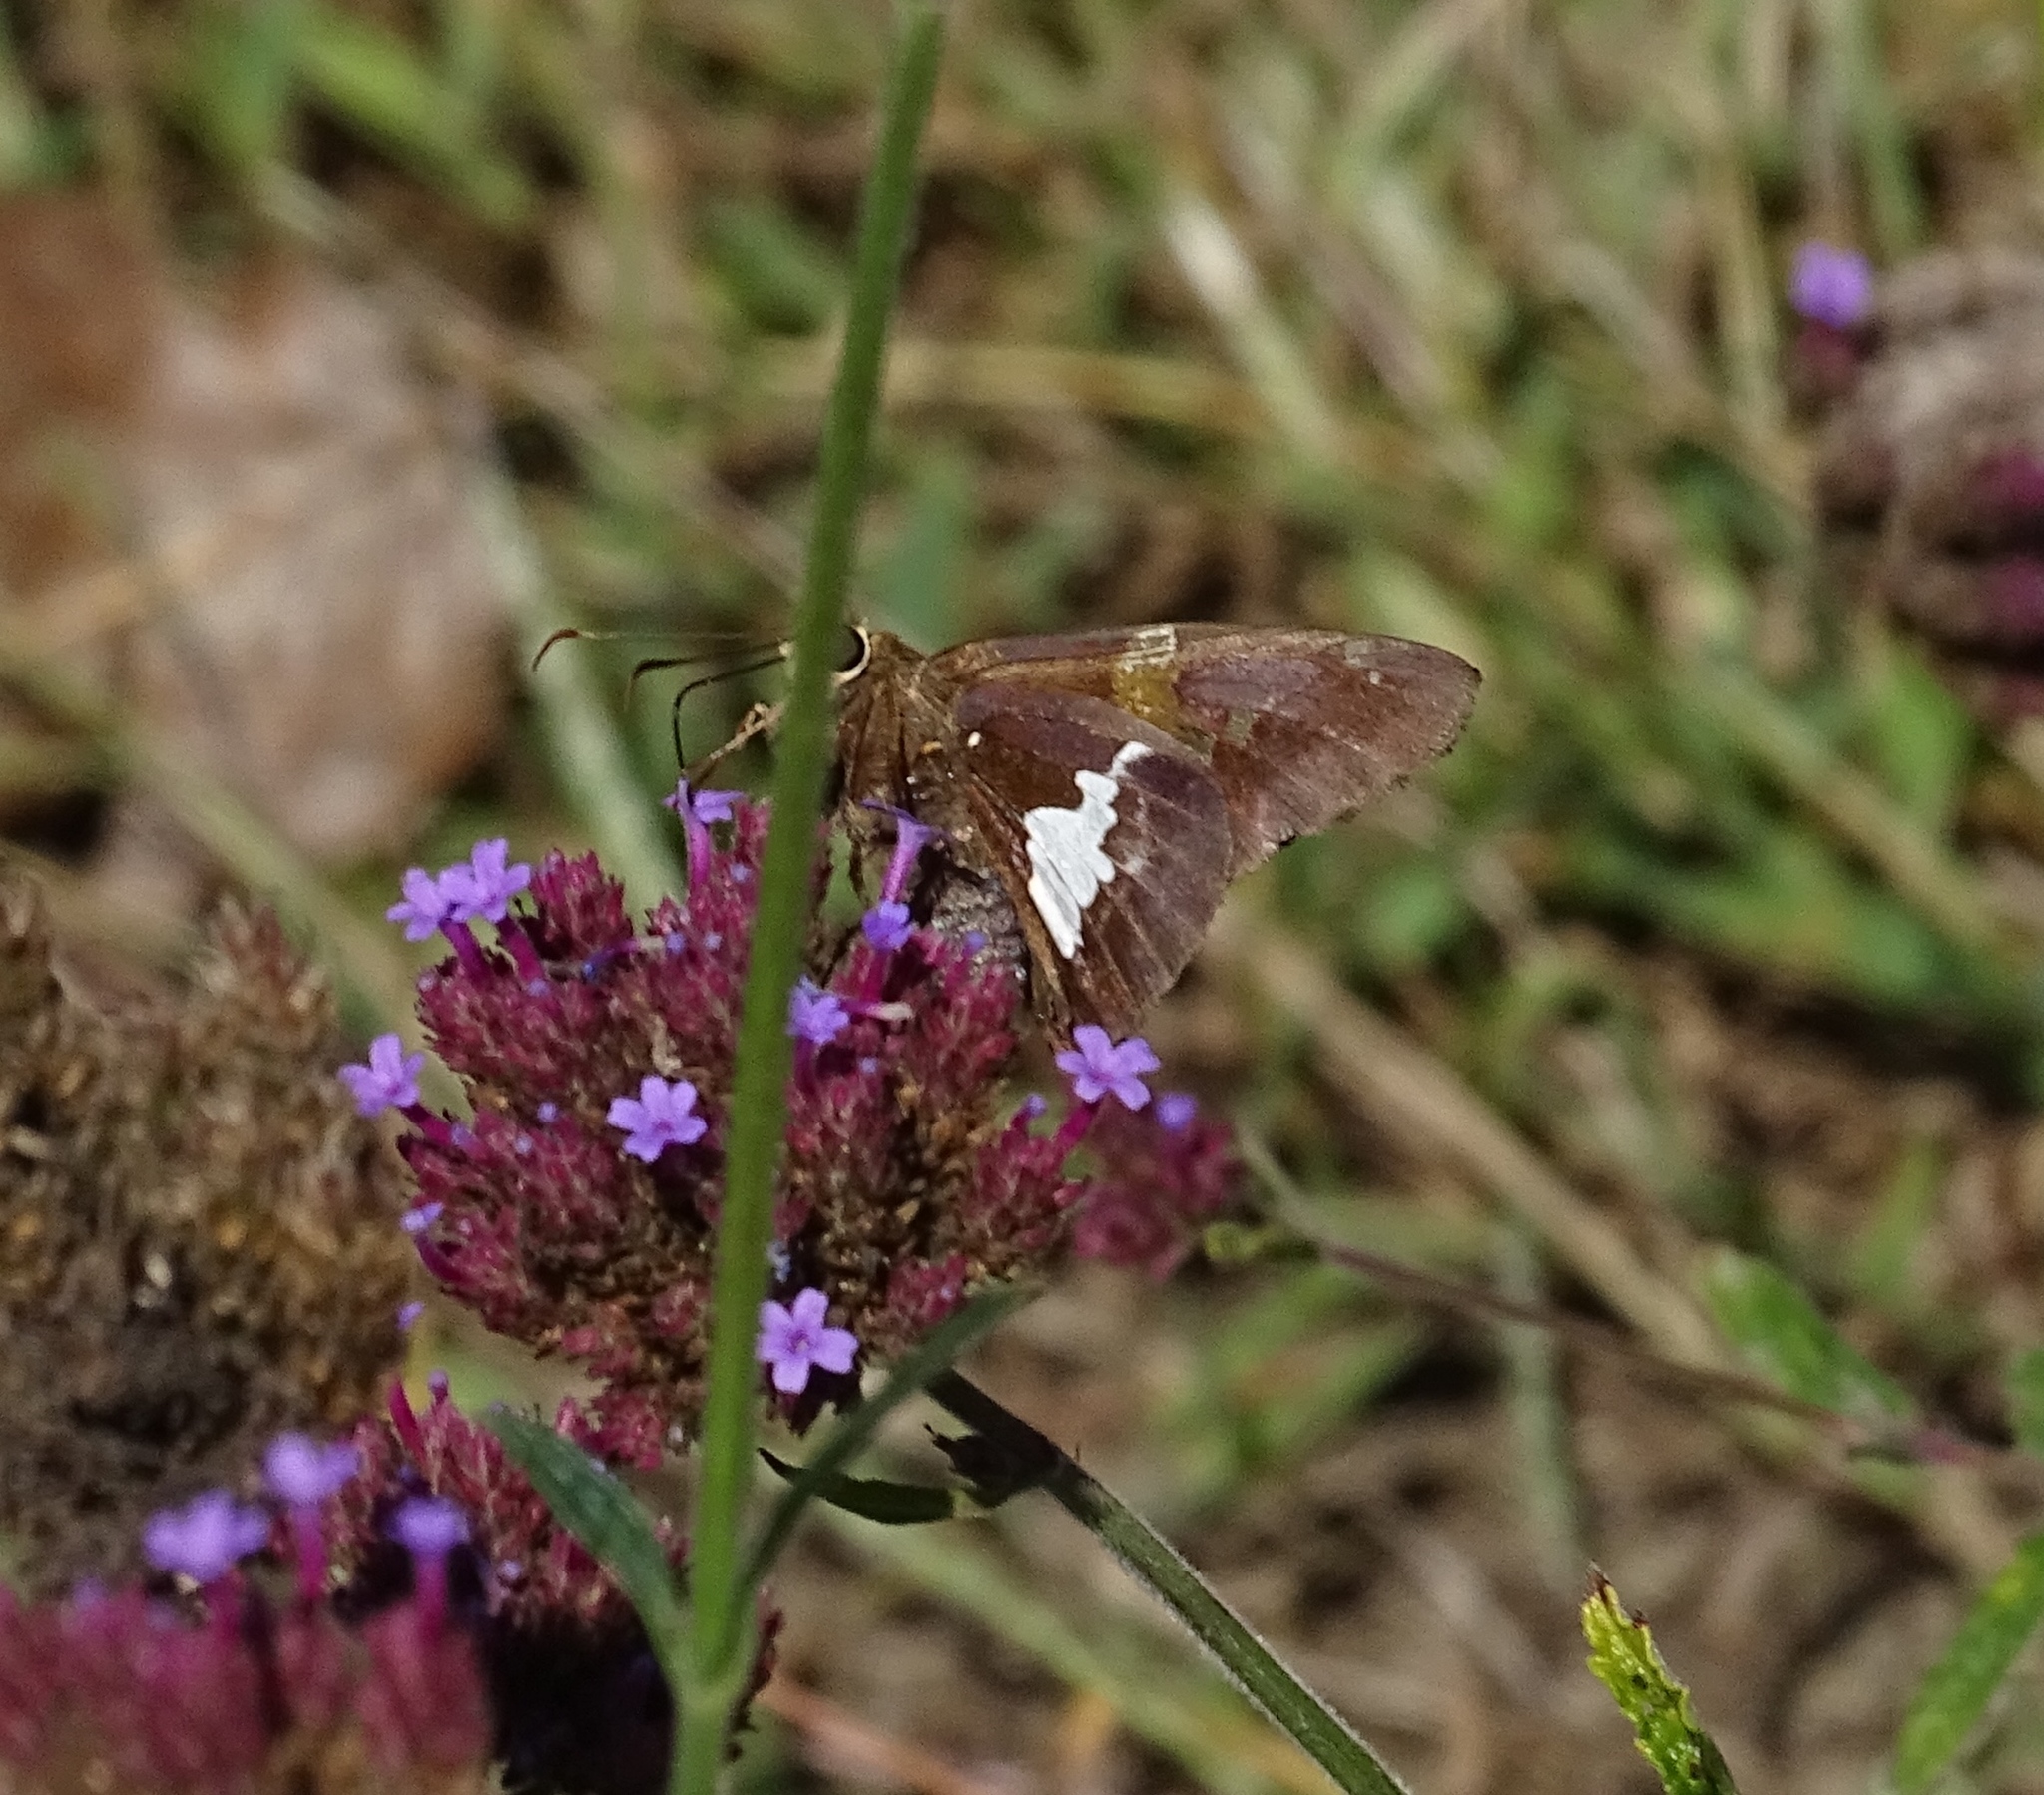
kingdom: Animalia
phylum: Arthropoda
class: Insecta
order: Lepidoptera
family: Hesperiidae
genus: Epargyreus
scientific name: Epargyreus clarus
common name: Silver-spotted skipper
